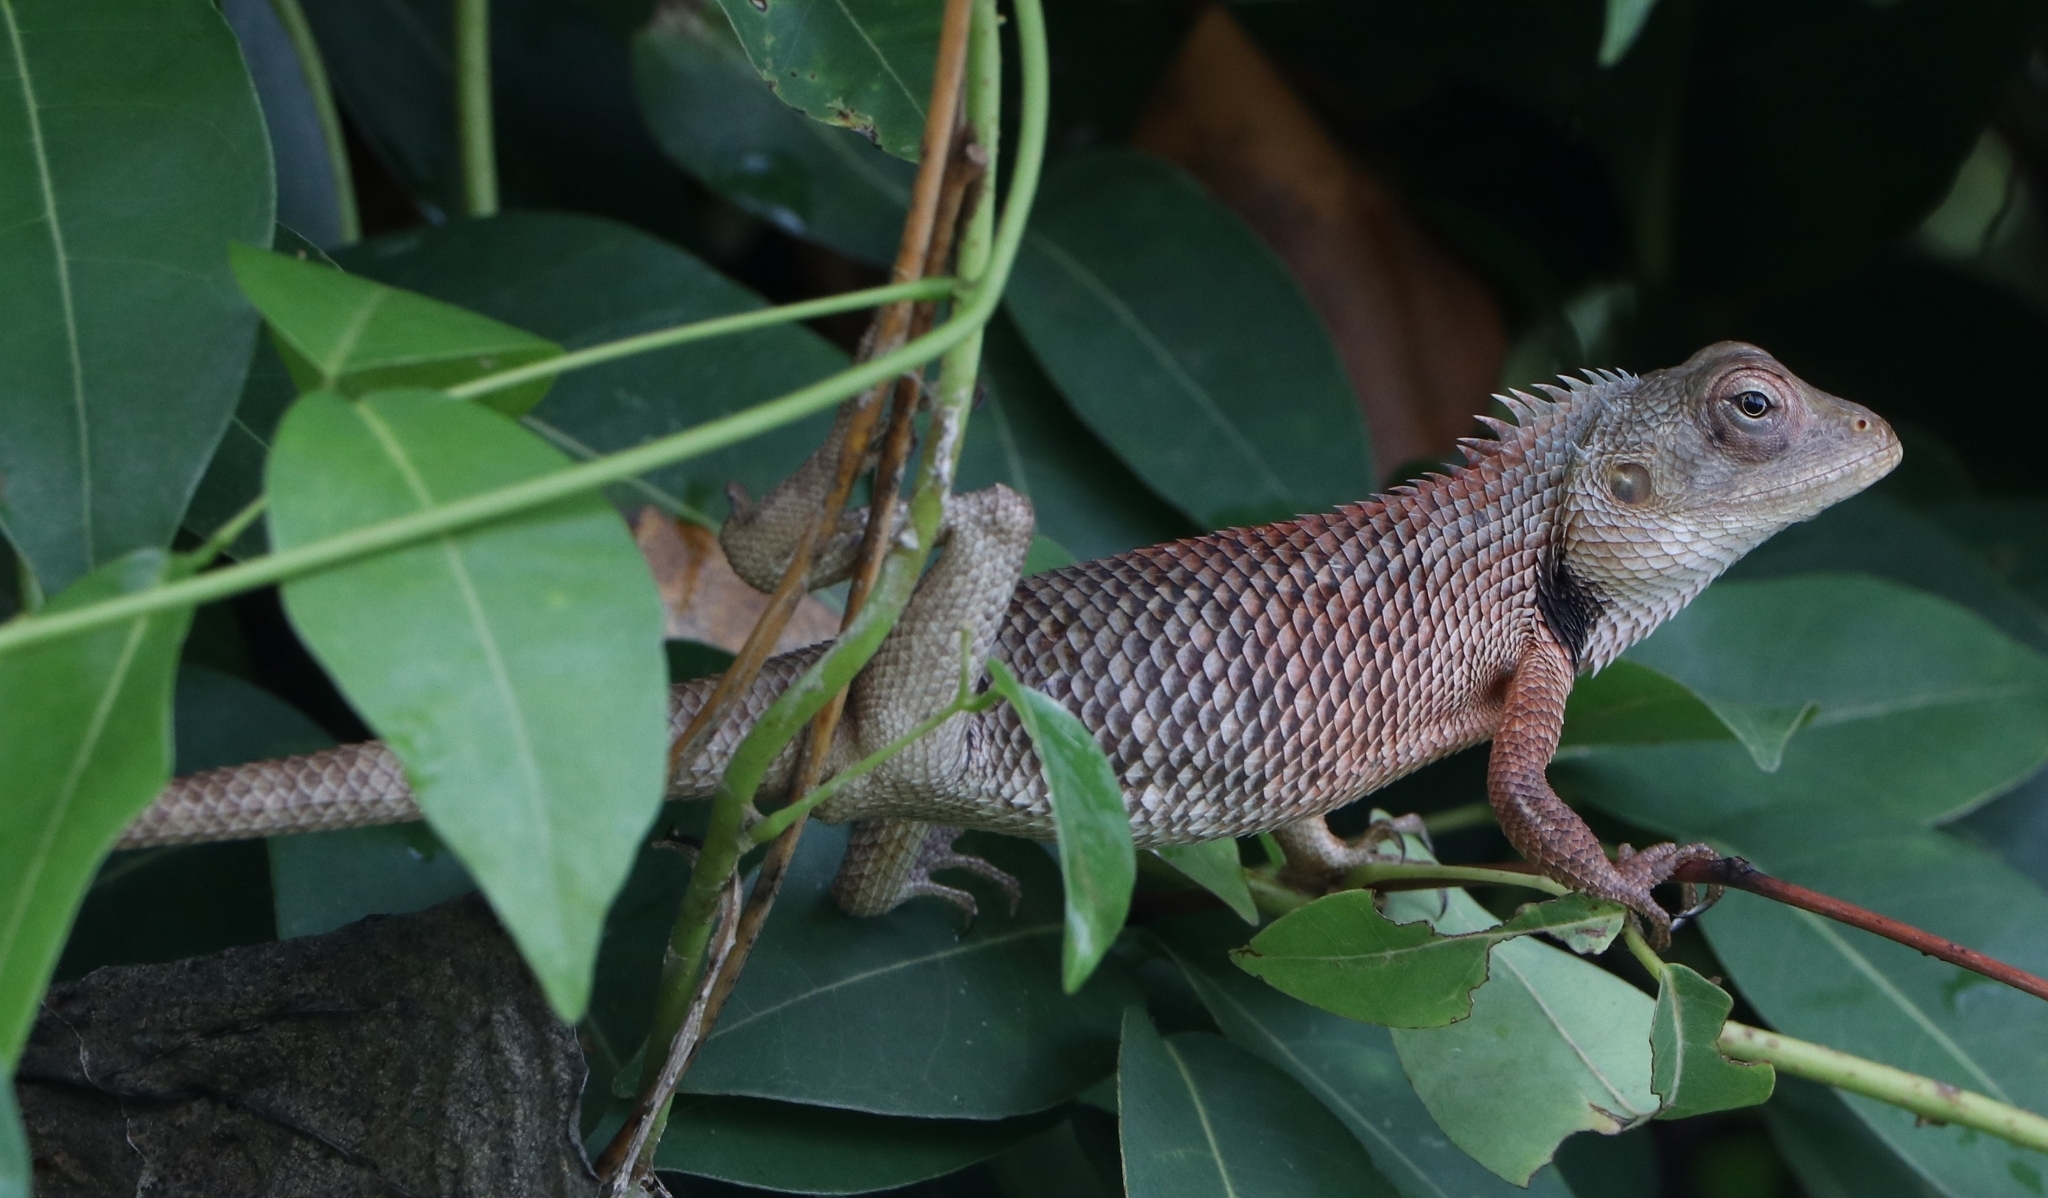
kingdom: Animalia
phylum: Chordata
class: Squamata
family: Agamidae
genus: Calotes
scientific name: Calotes versicolor
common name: Oriental garden lizard
